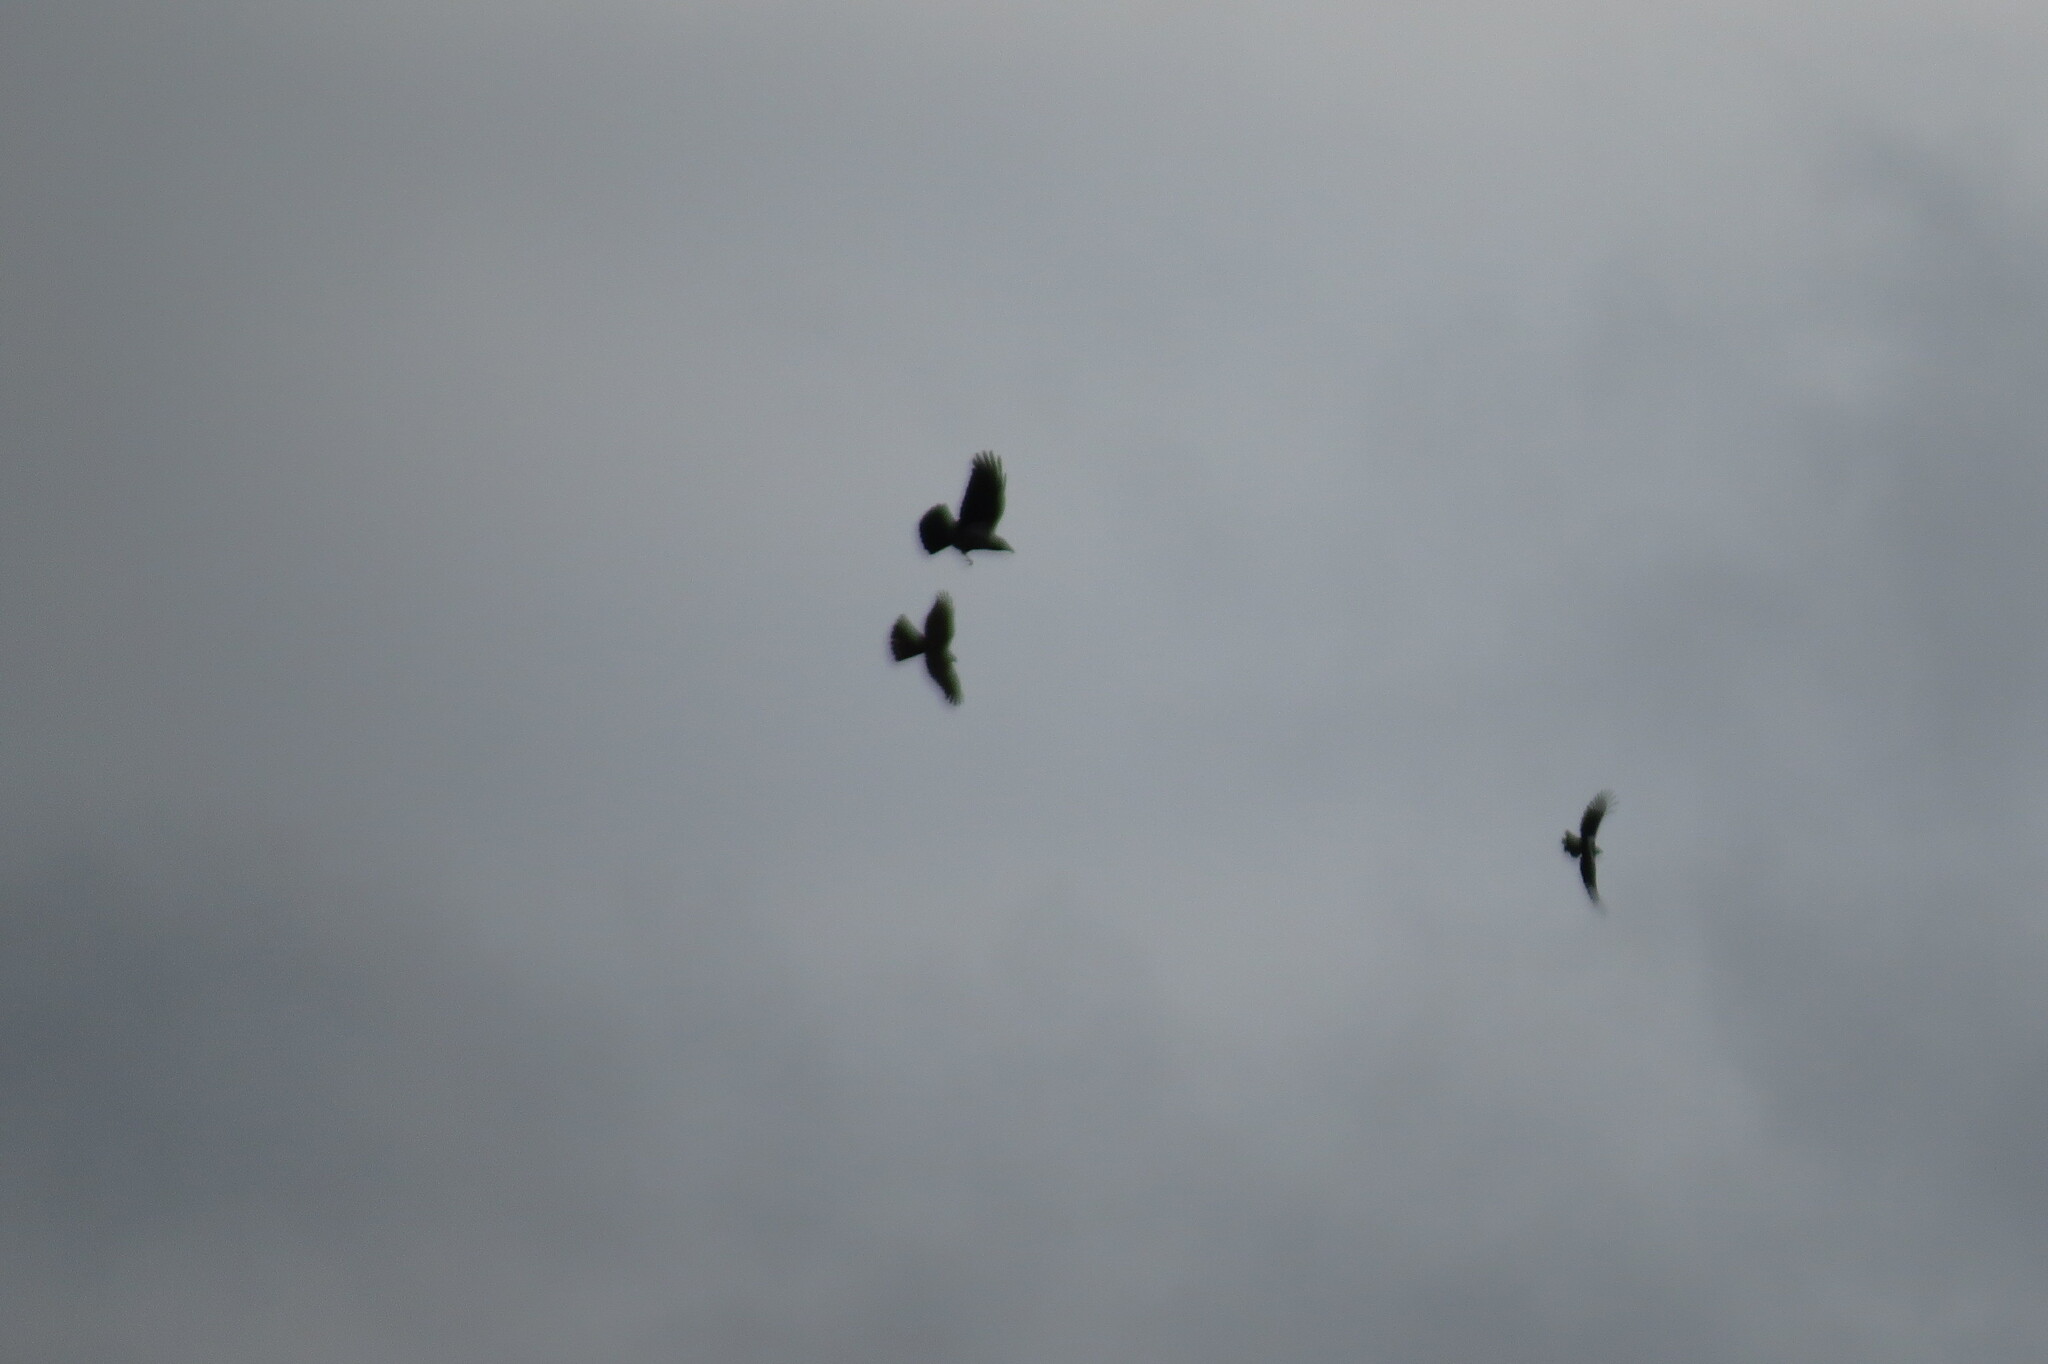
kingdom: Animalia
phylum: Chordata
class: Aves
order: Accipitriformes
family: Accipitridae
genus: Accipiter
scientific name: Accipiter nisus
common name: Eurasian sparrowhawk
